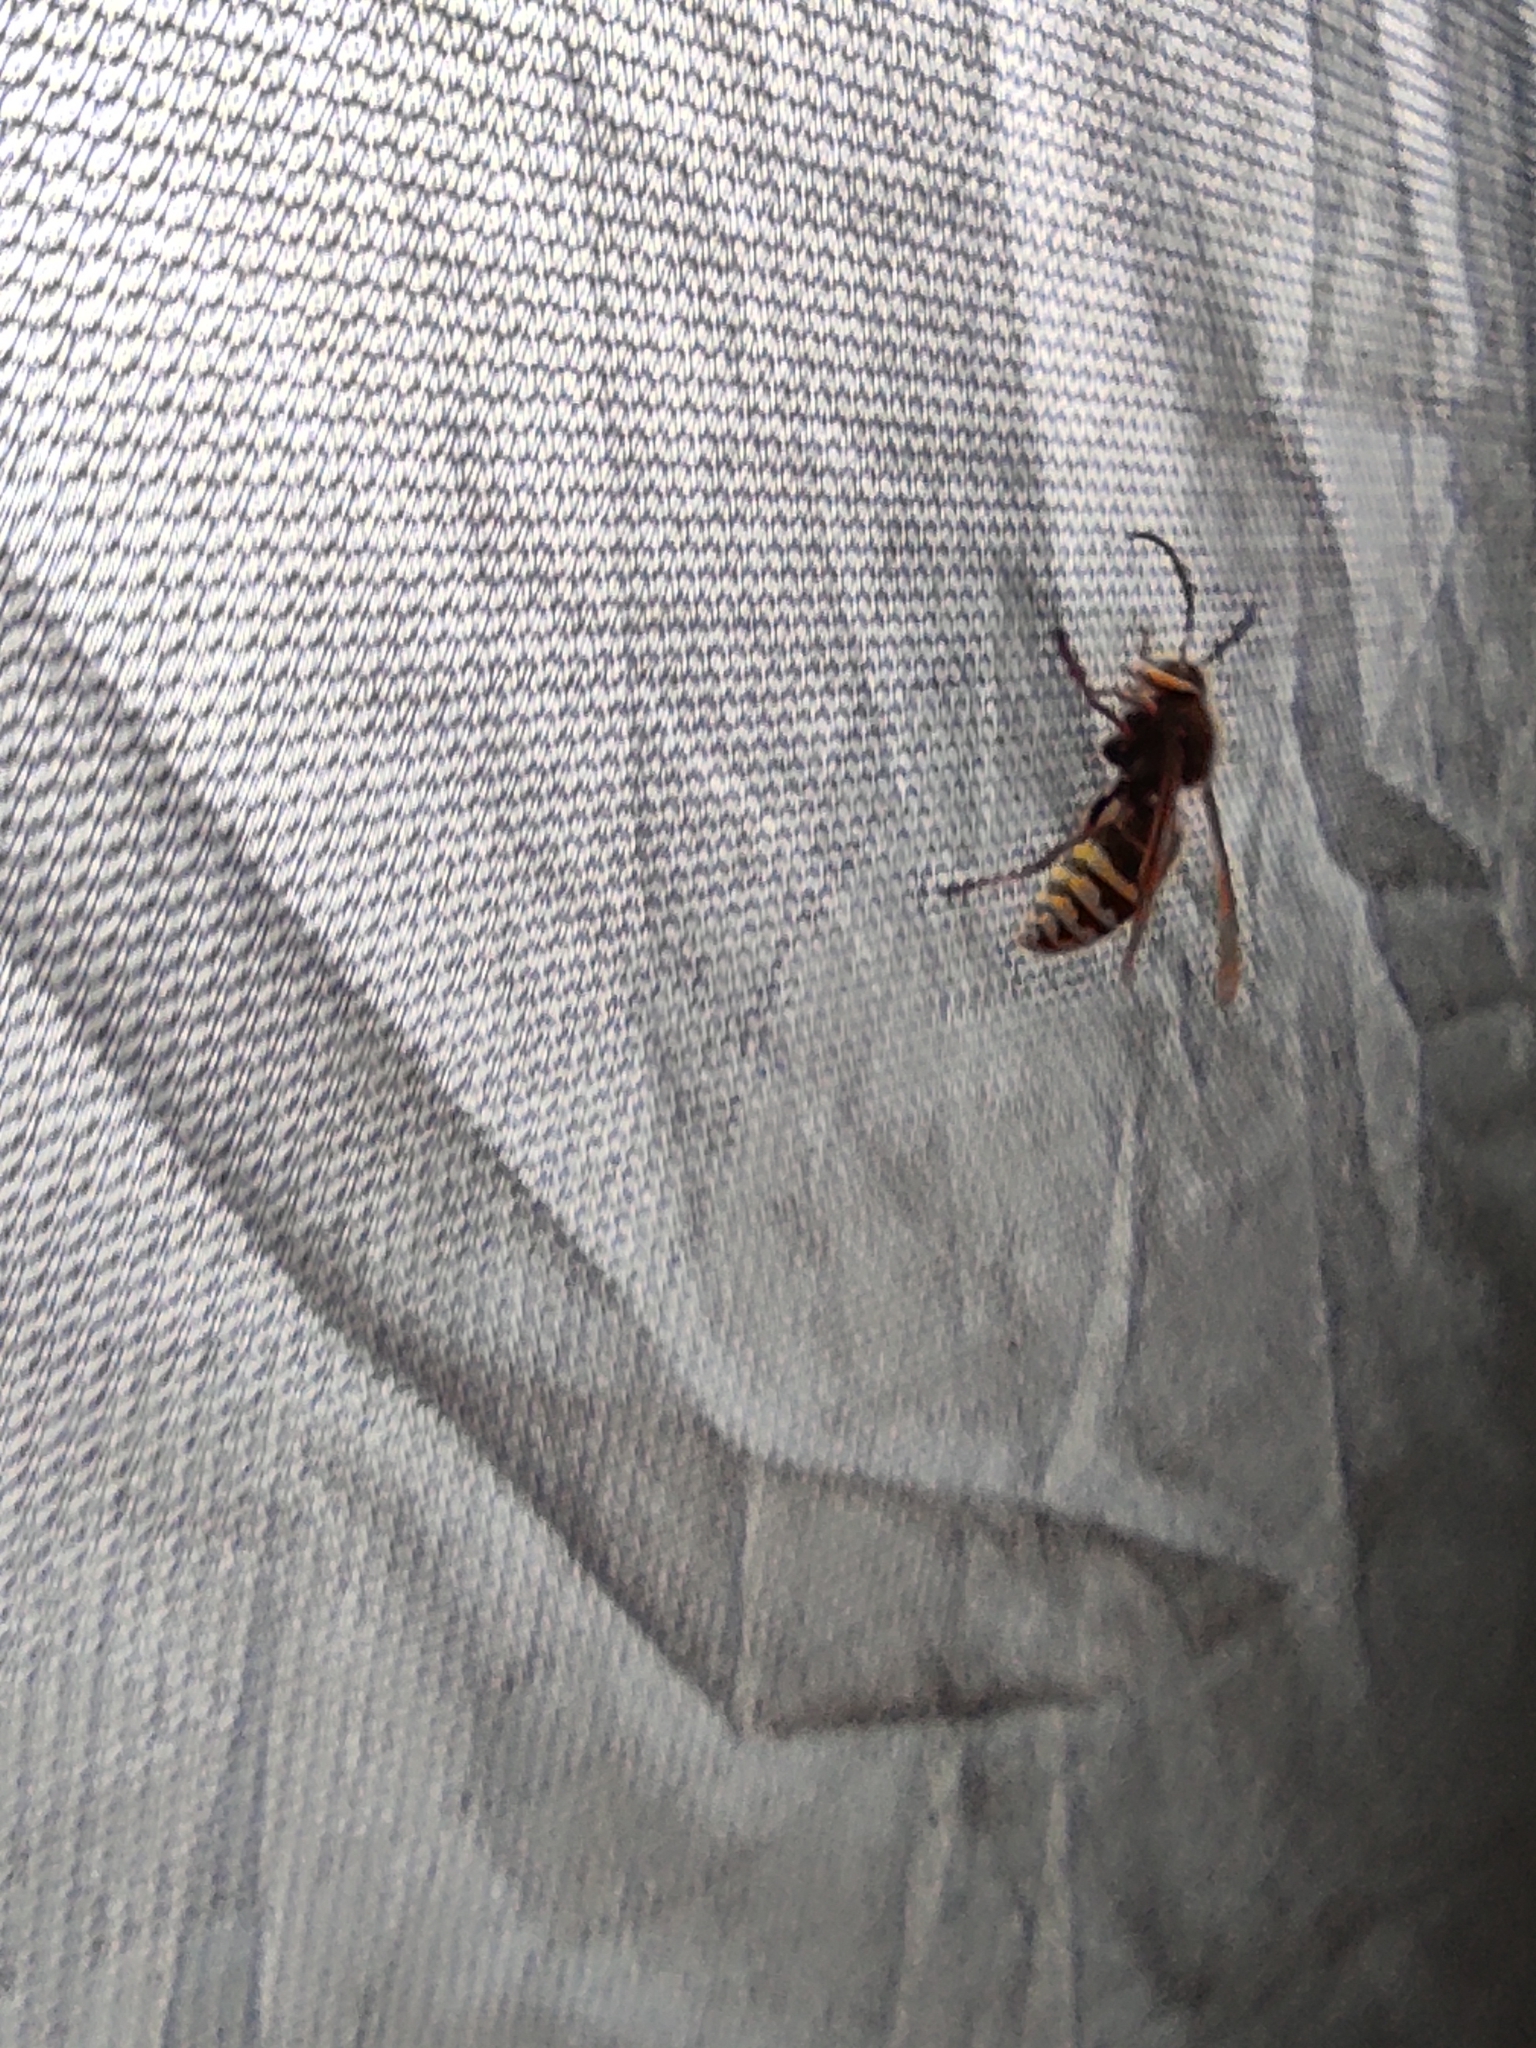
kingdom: Animalia
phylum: Arthropoda
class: Insecta
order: Hymenoptera
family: Vespidae
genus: Vespa
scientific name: Vespa crabro
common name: Hornet
